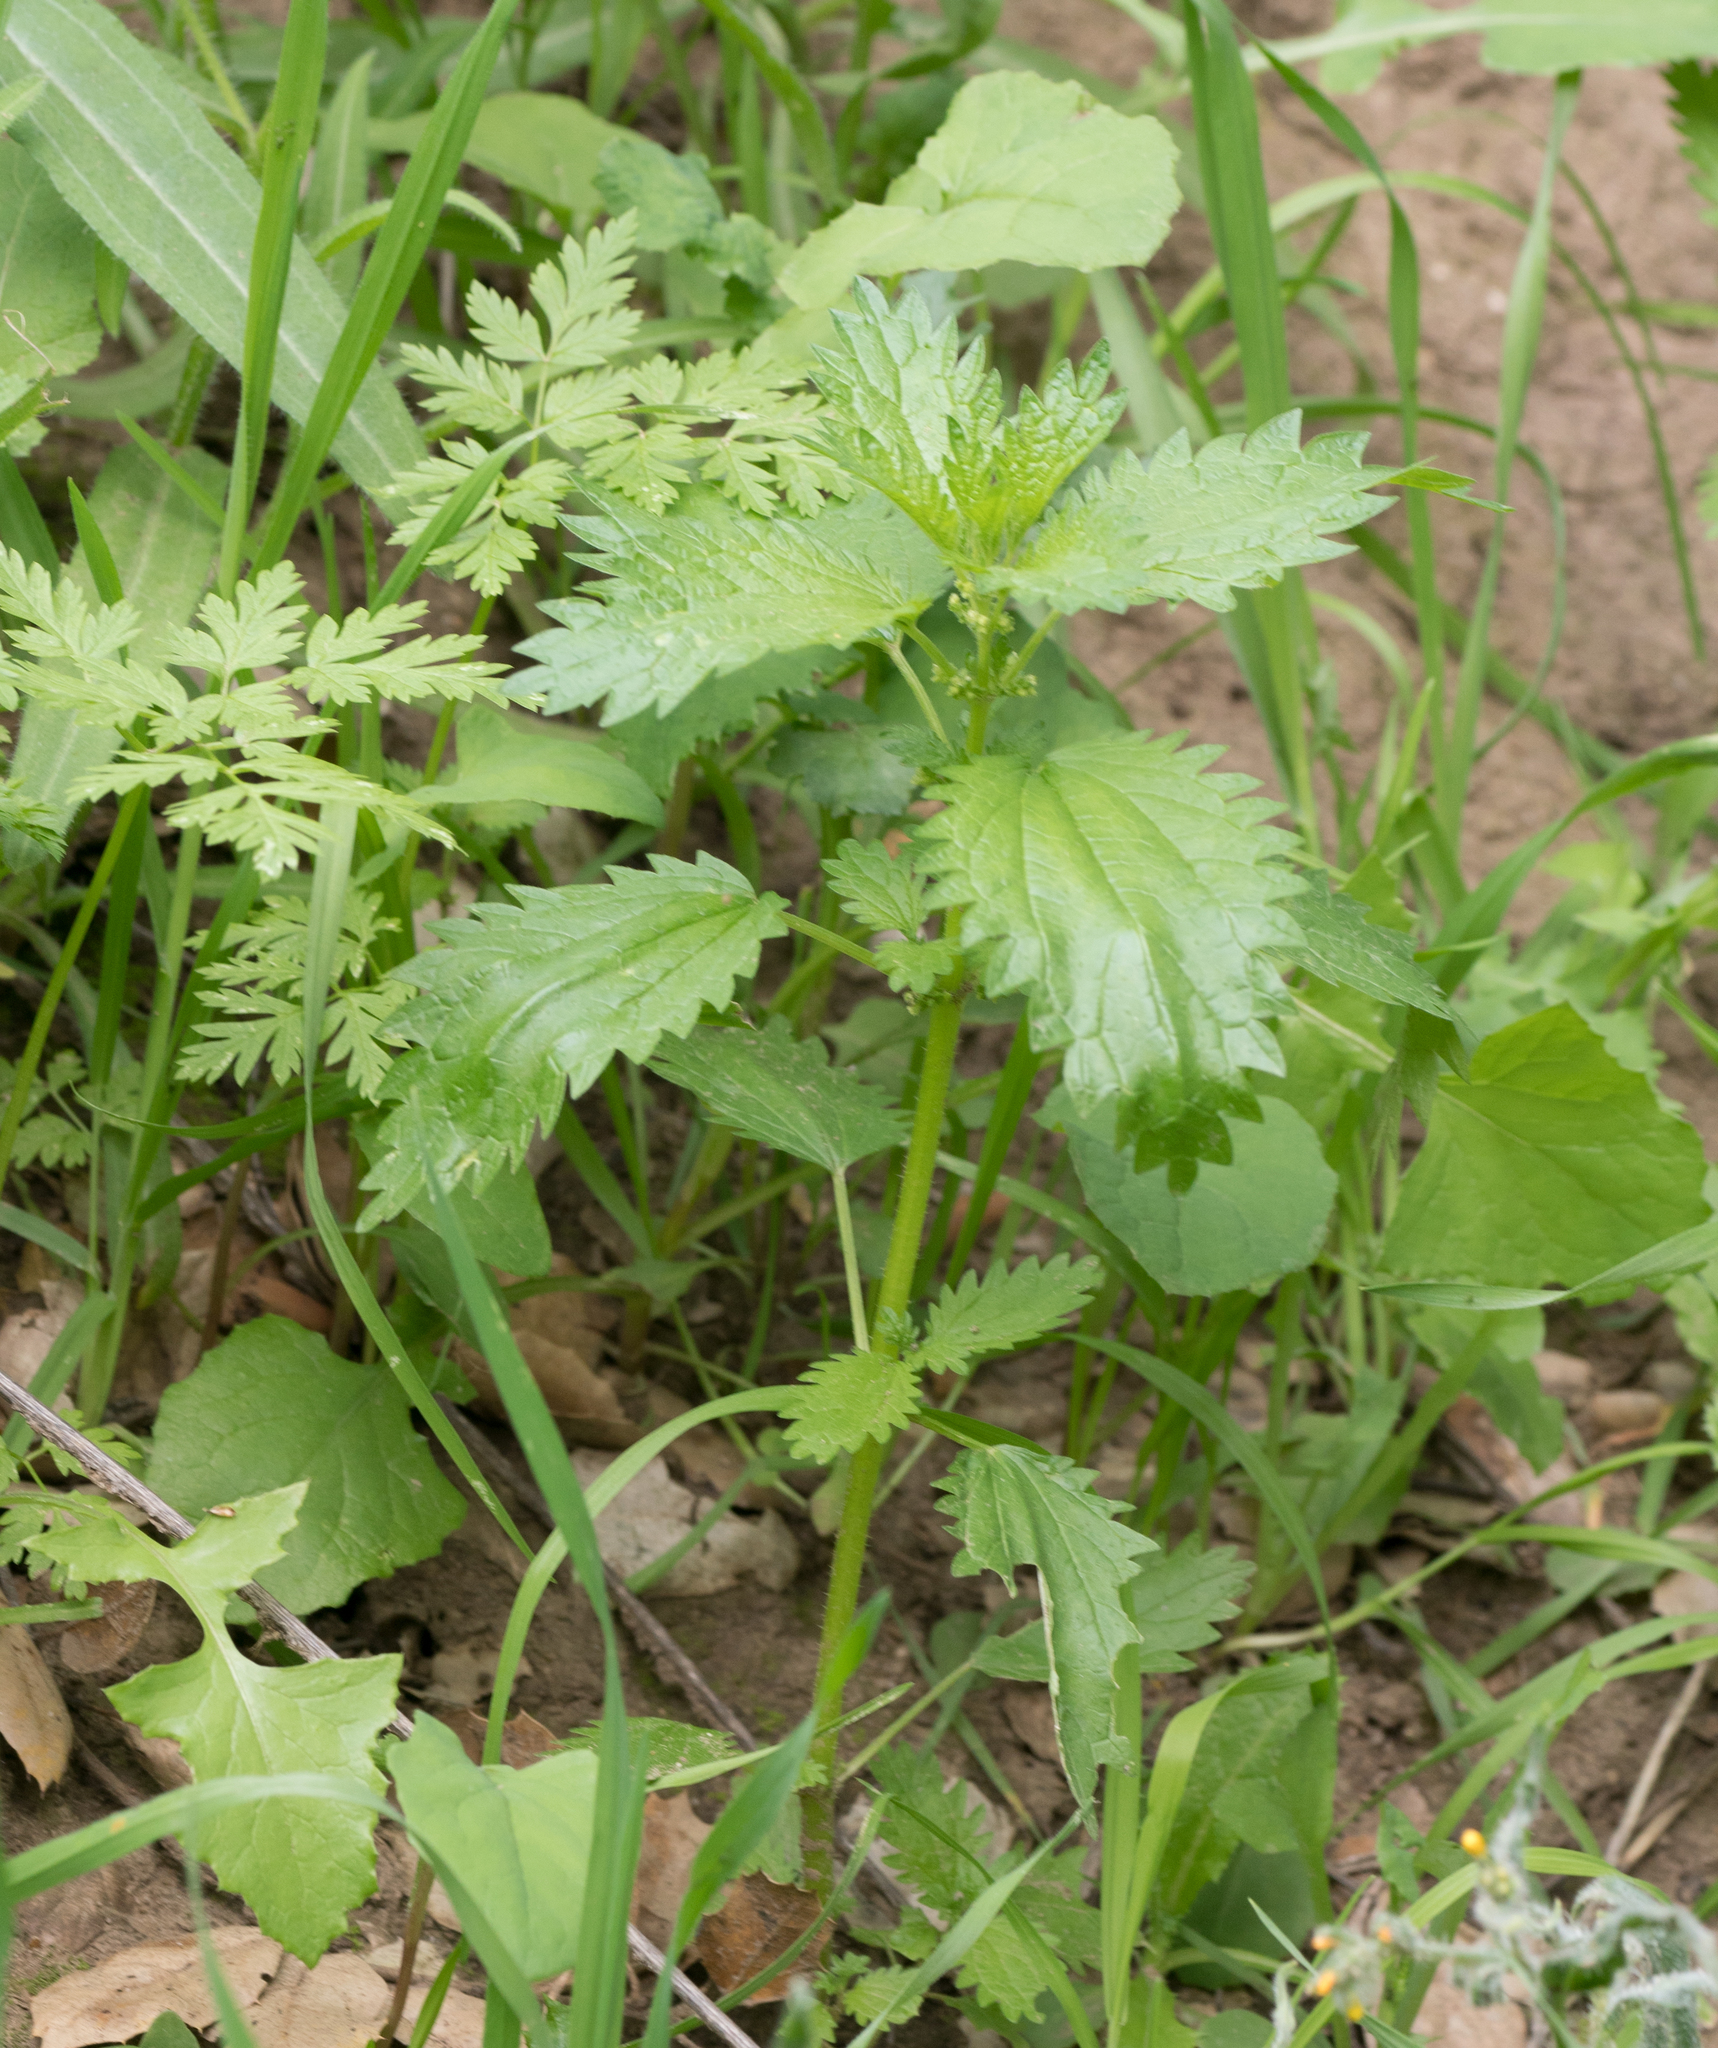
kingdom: Plantae
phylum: Tracheophyta
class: Magnoliopsida
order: Rosales
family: Urticaceae
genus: Urtica
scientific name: Urtica urens
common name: Dwarf nettle
